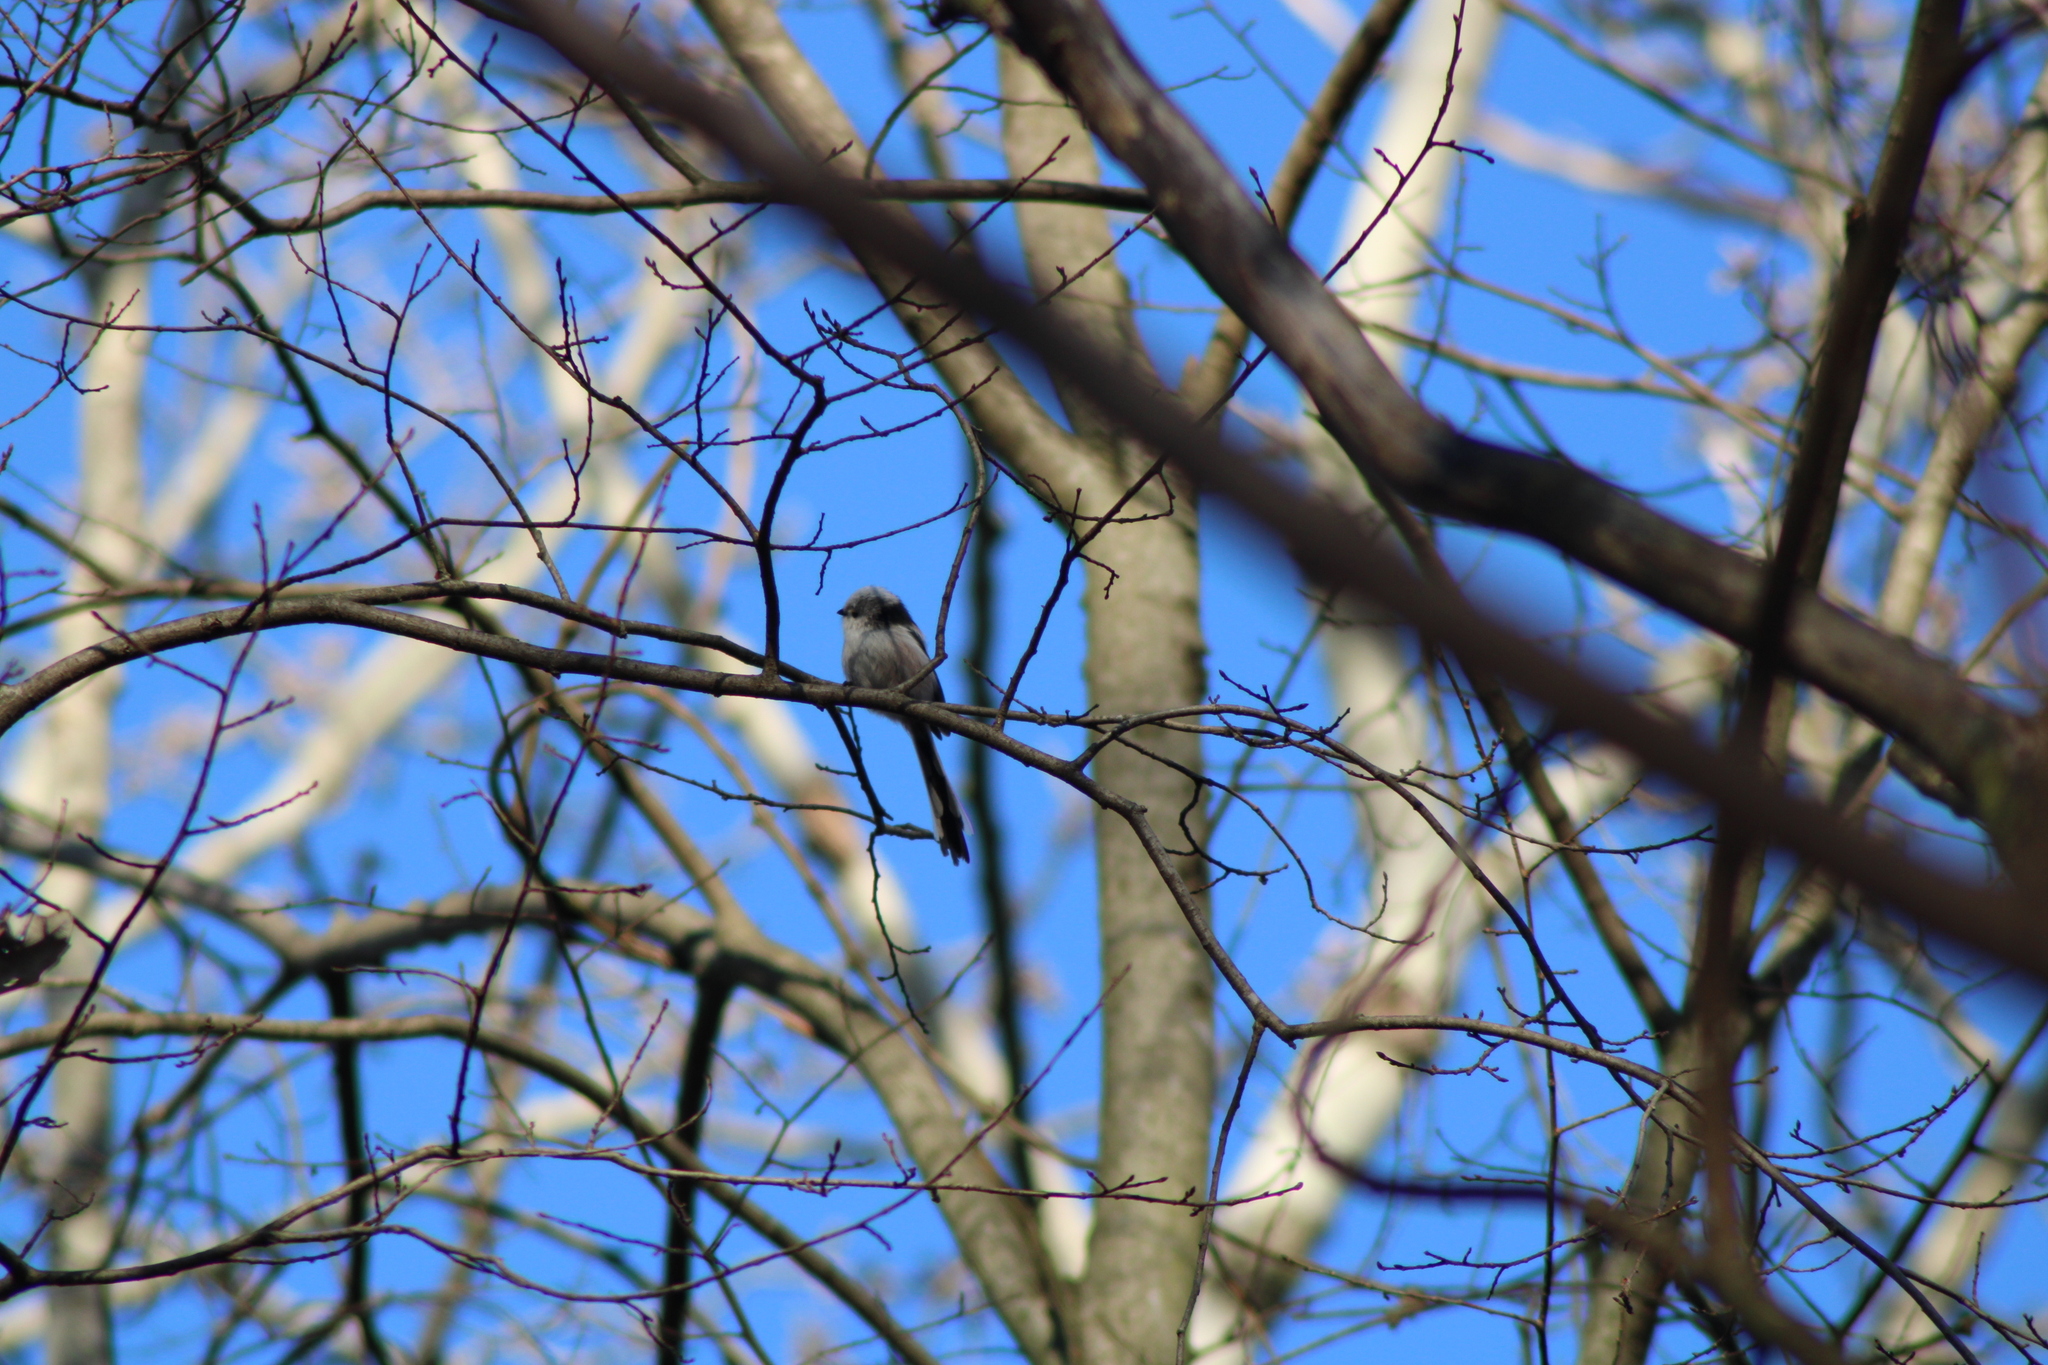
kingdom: Animalia
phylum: Chordata
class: Aves
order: Passeriformes
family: Aegithalidae
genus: Aegithalos
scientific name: Aegithalos caudatus
